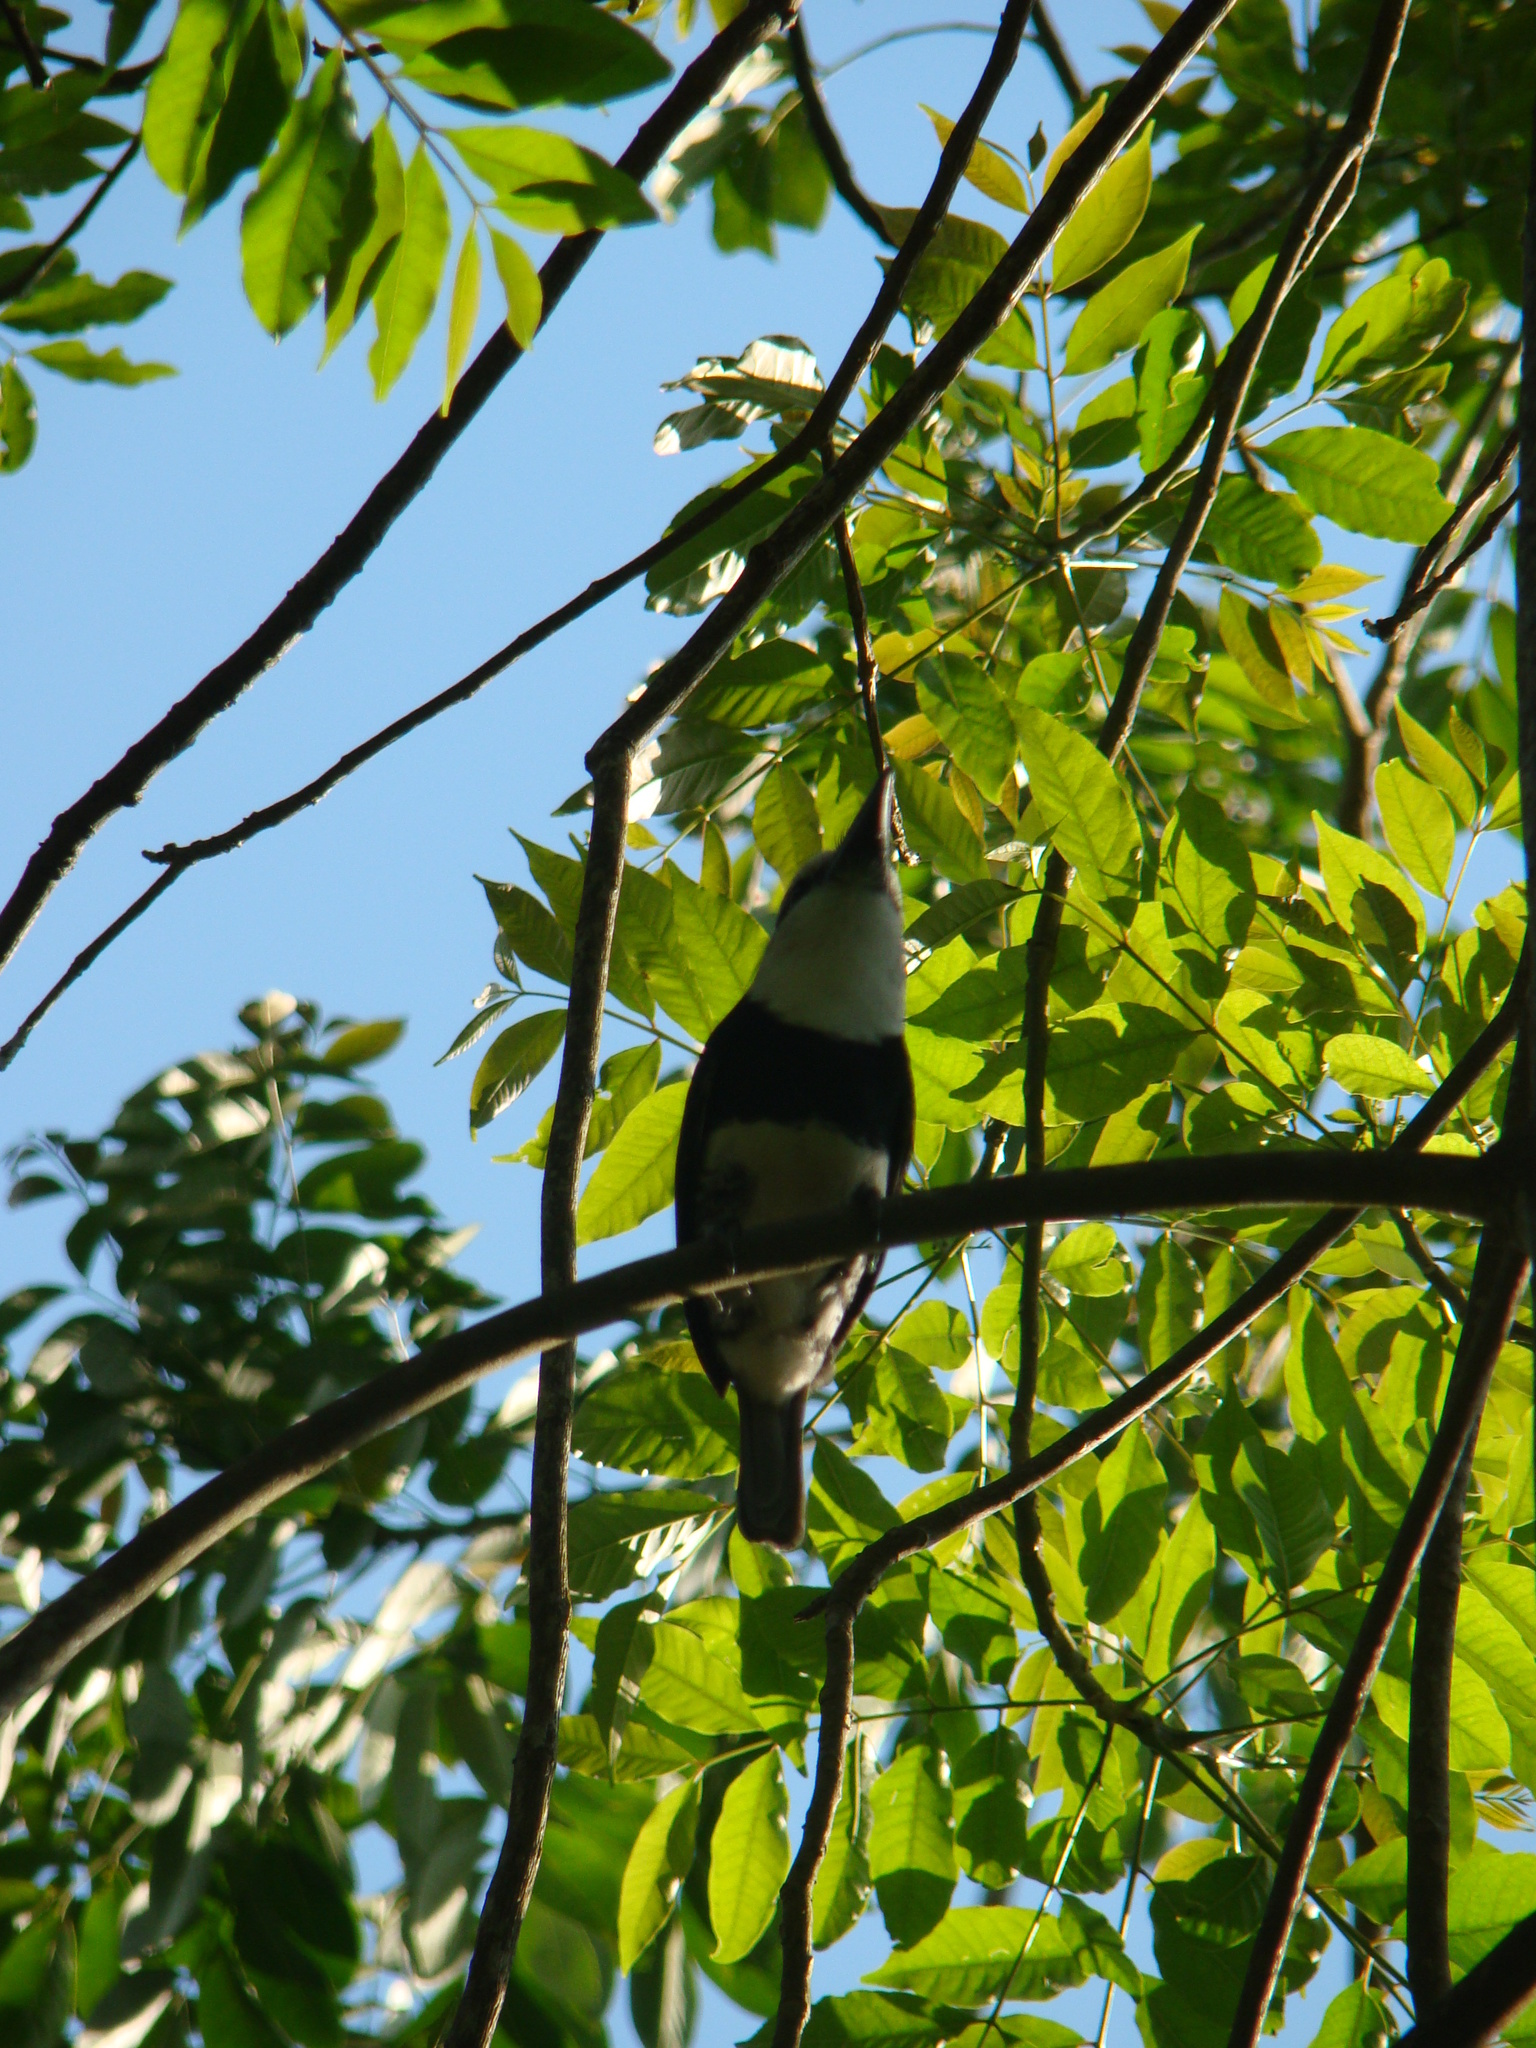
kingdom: Animalia
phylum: Chordata
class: Aves
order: Piciformes
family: Bucconidae
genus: Notharchus
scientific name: Notharchus hyperrhynchus
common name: White-necked puffbird
